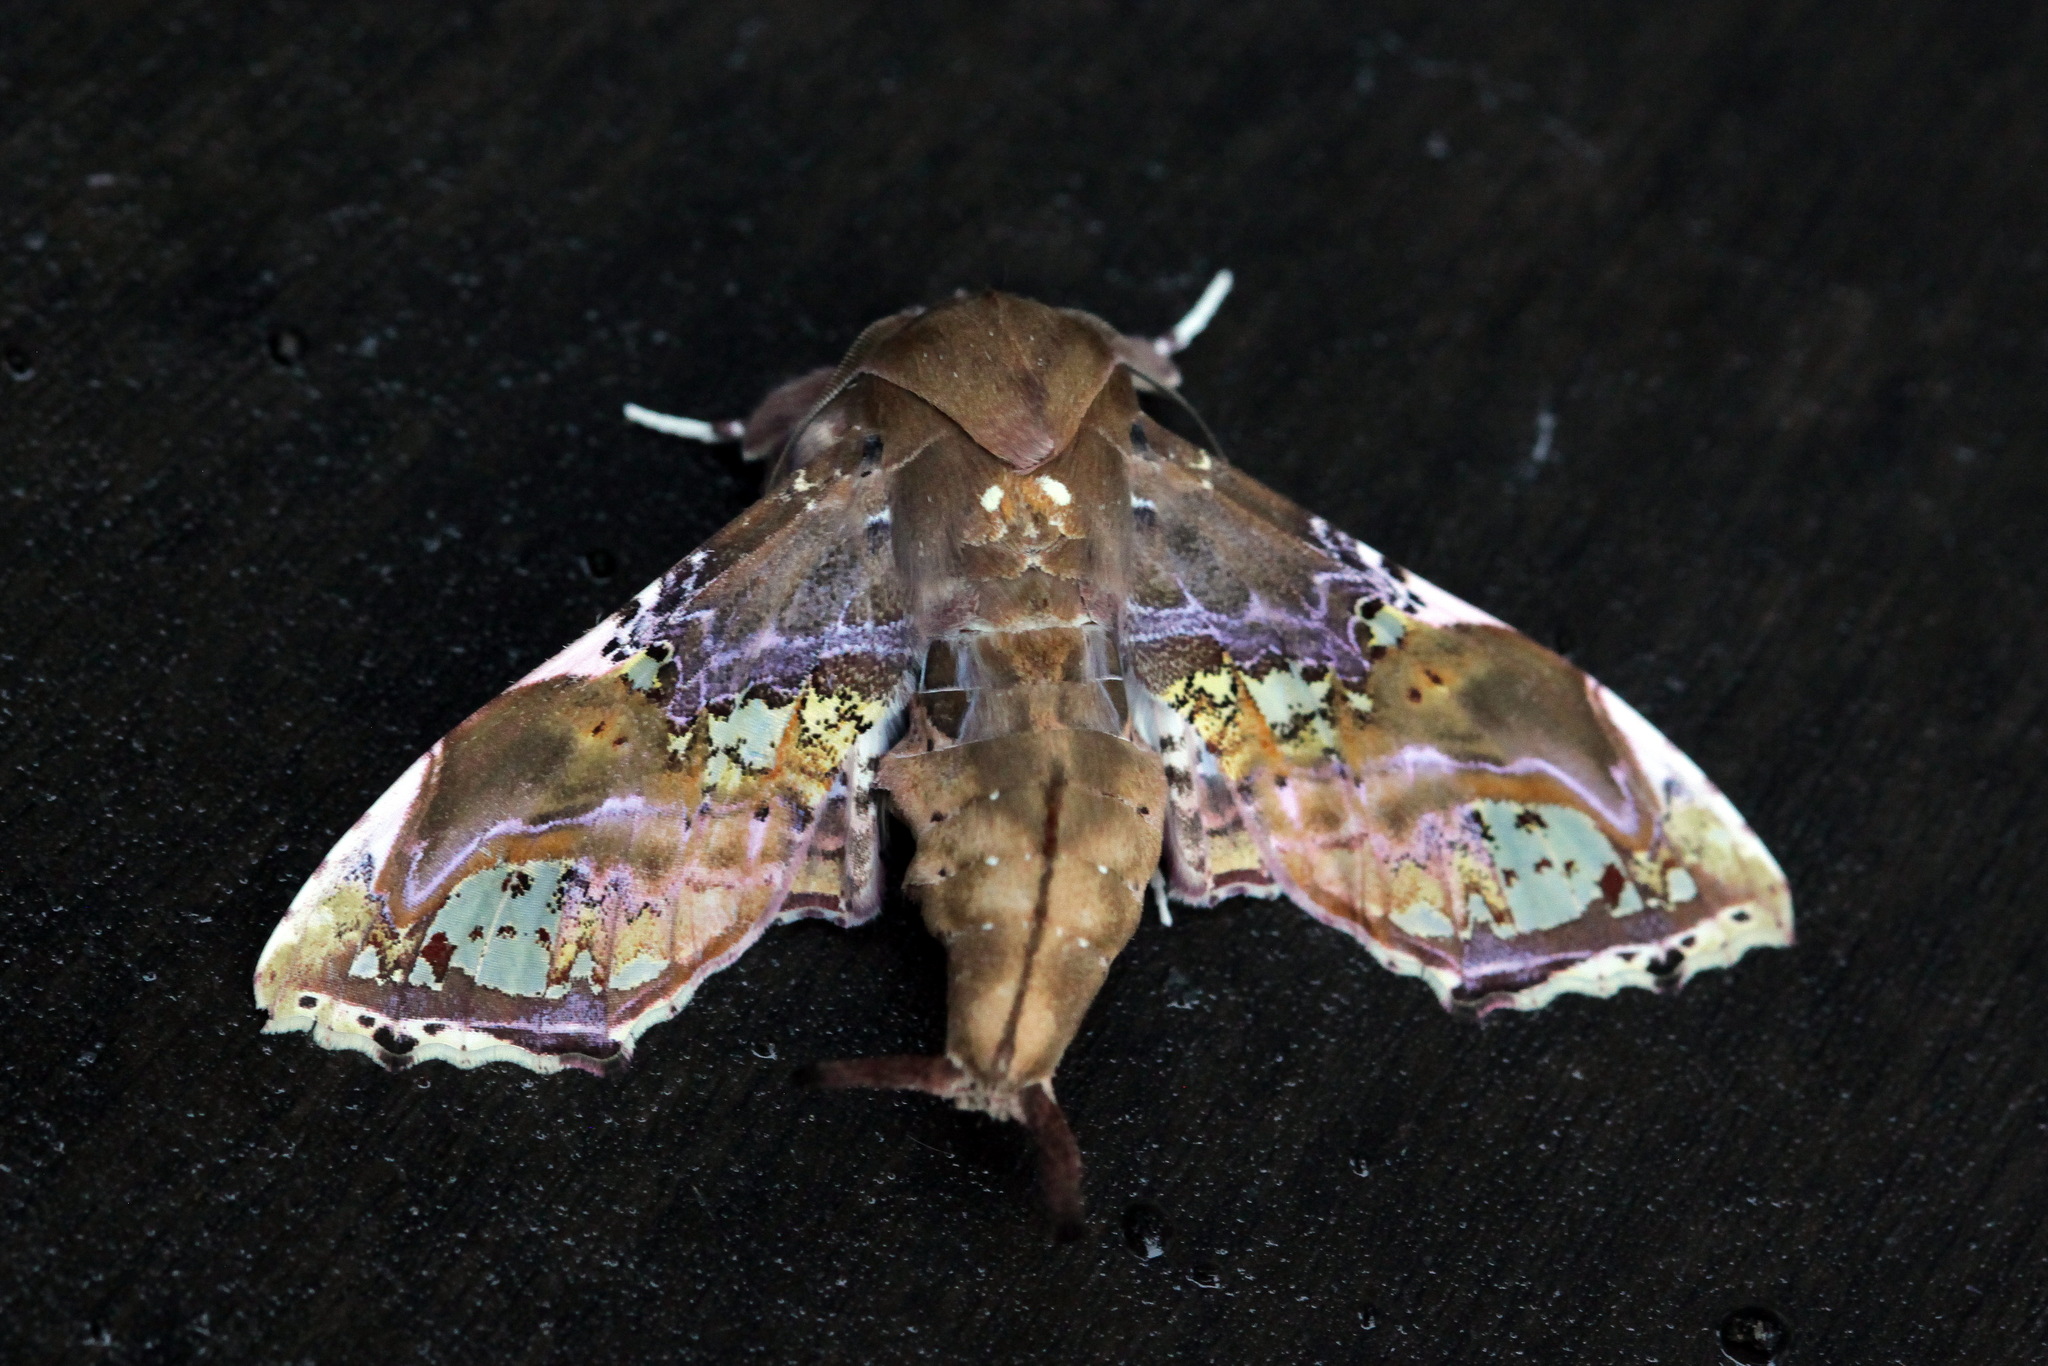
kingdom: Animalia
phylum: Arthropoda
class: Insecta
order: Lepidoptera
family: Euteliidae
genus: Caligatus
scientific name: Caligatus angasii
